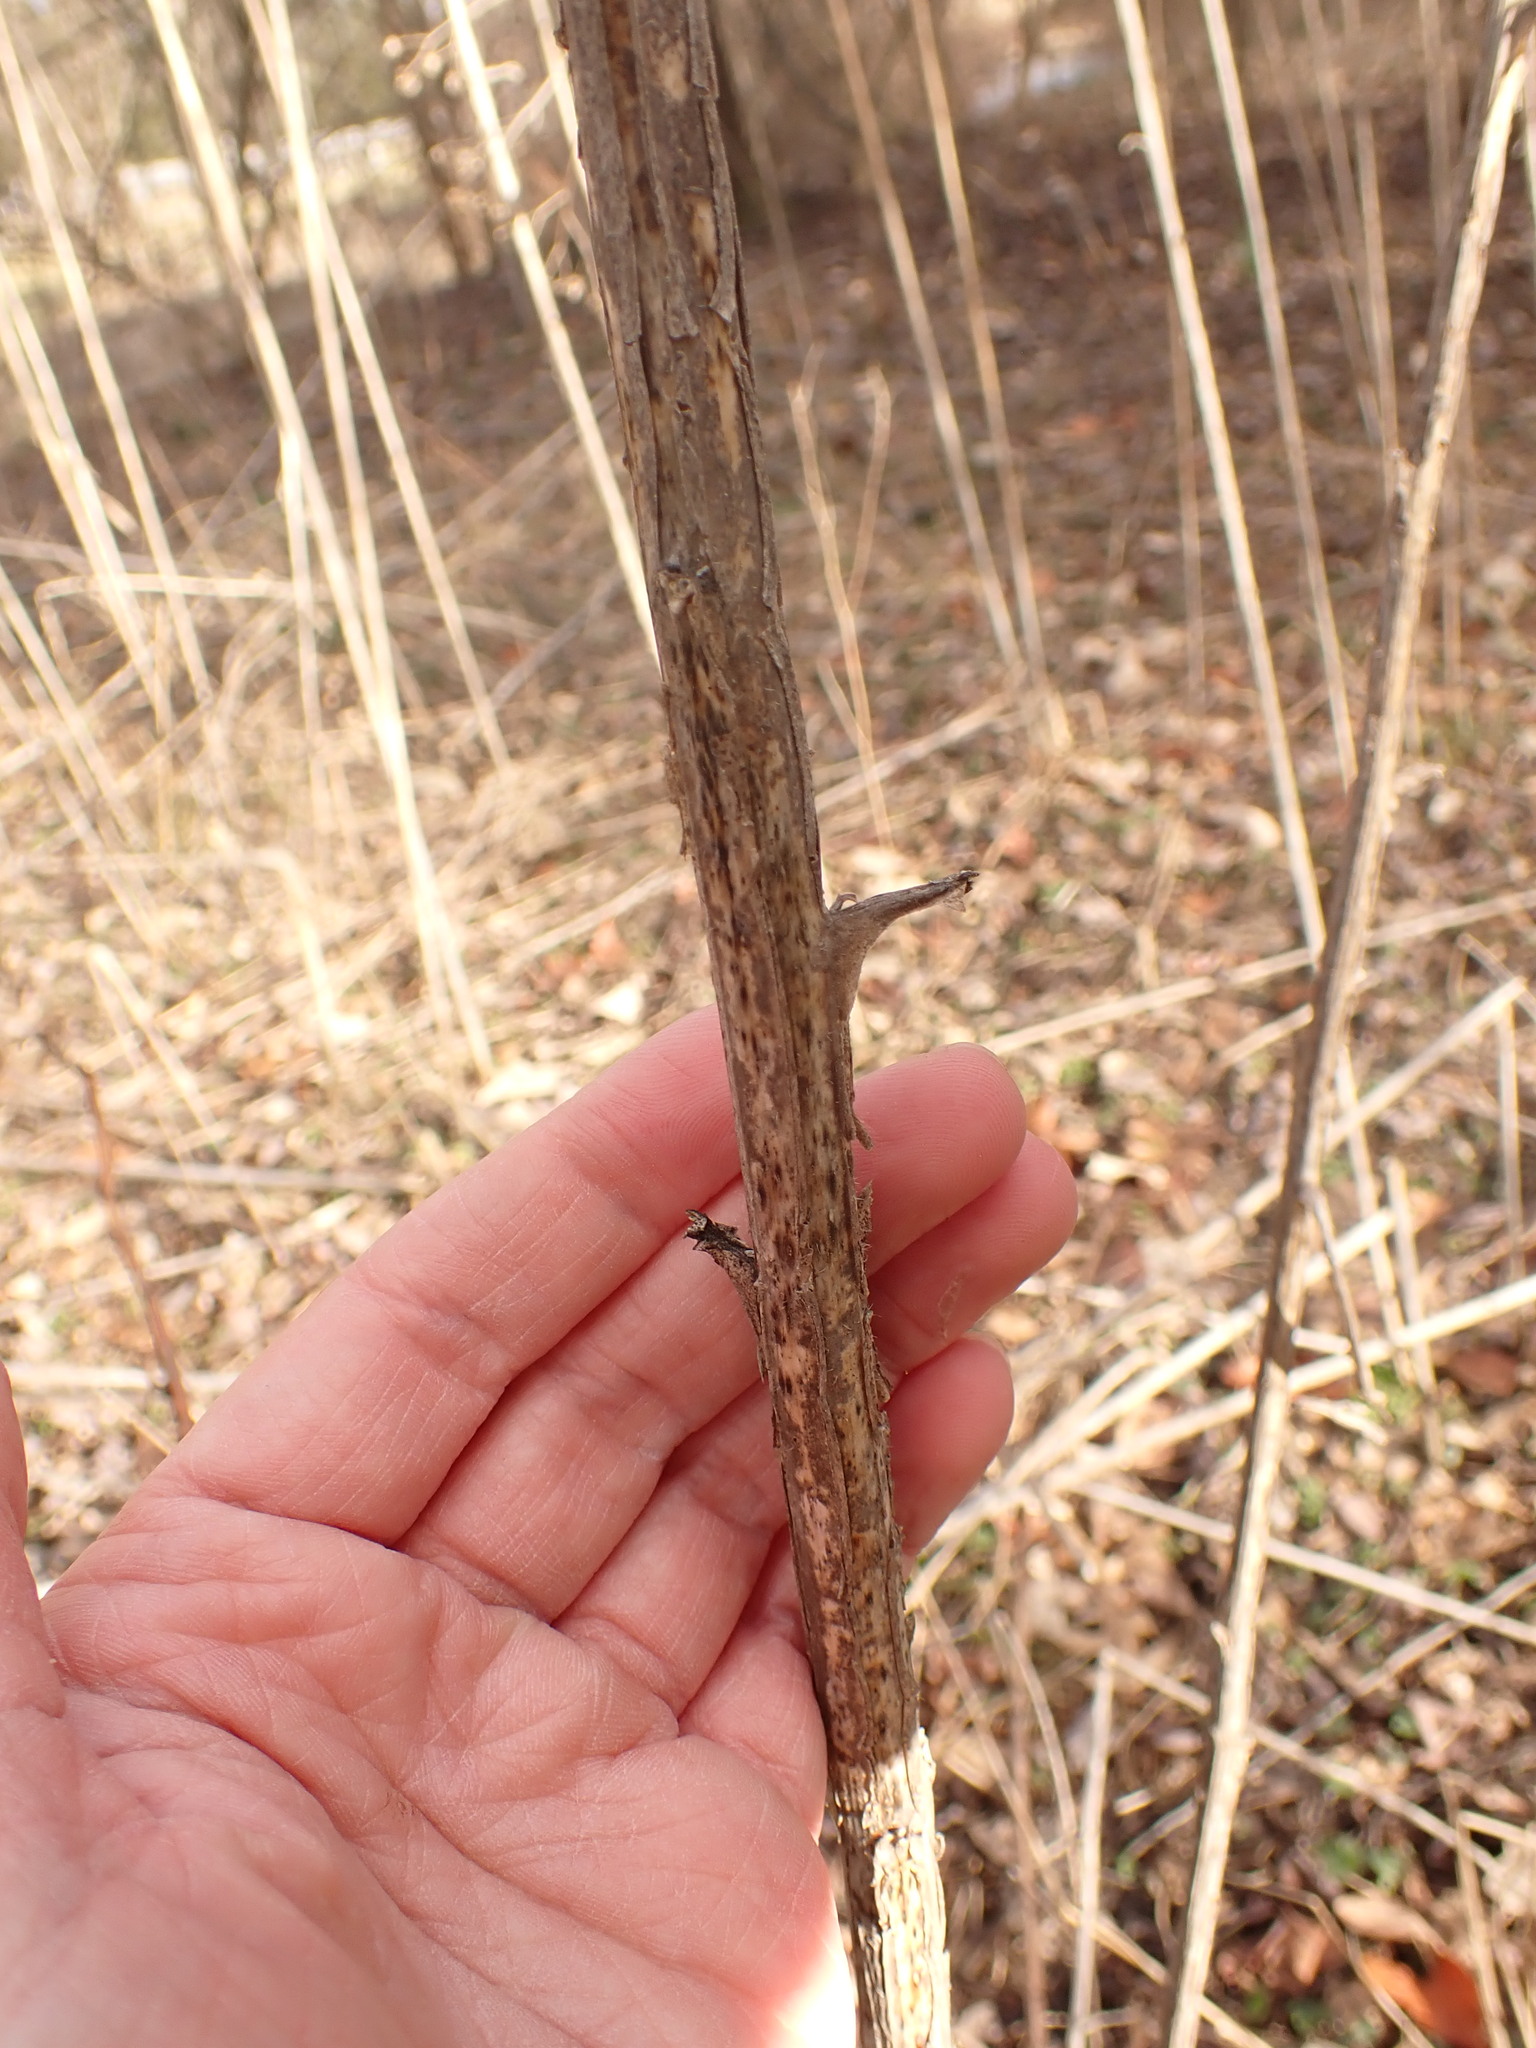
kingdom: Plantae
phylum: Tracheophyta
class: Magnoliopsida
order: Asterales
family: Asteraceae
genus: Verbesina
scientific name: Verbesina alternifolia
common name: Wingstem
